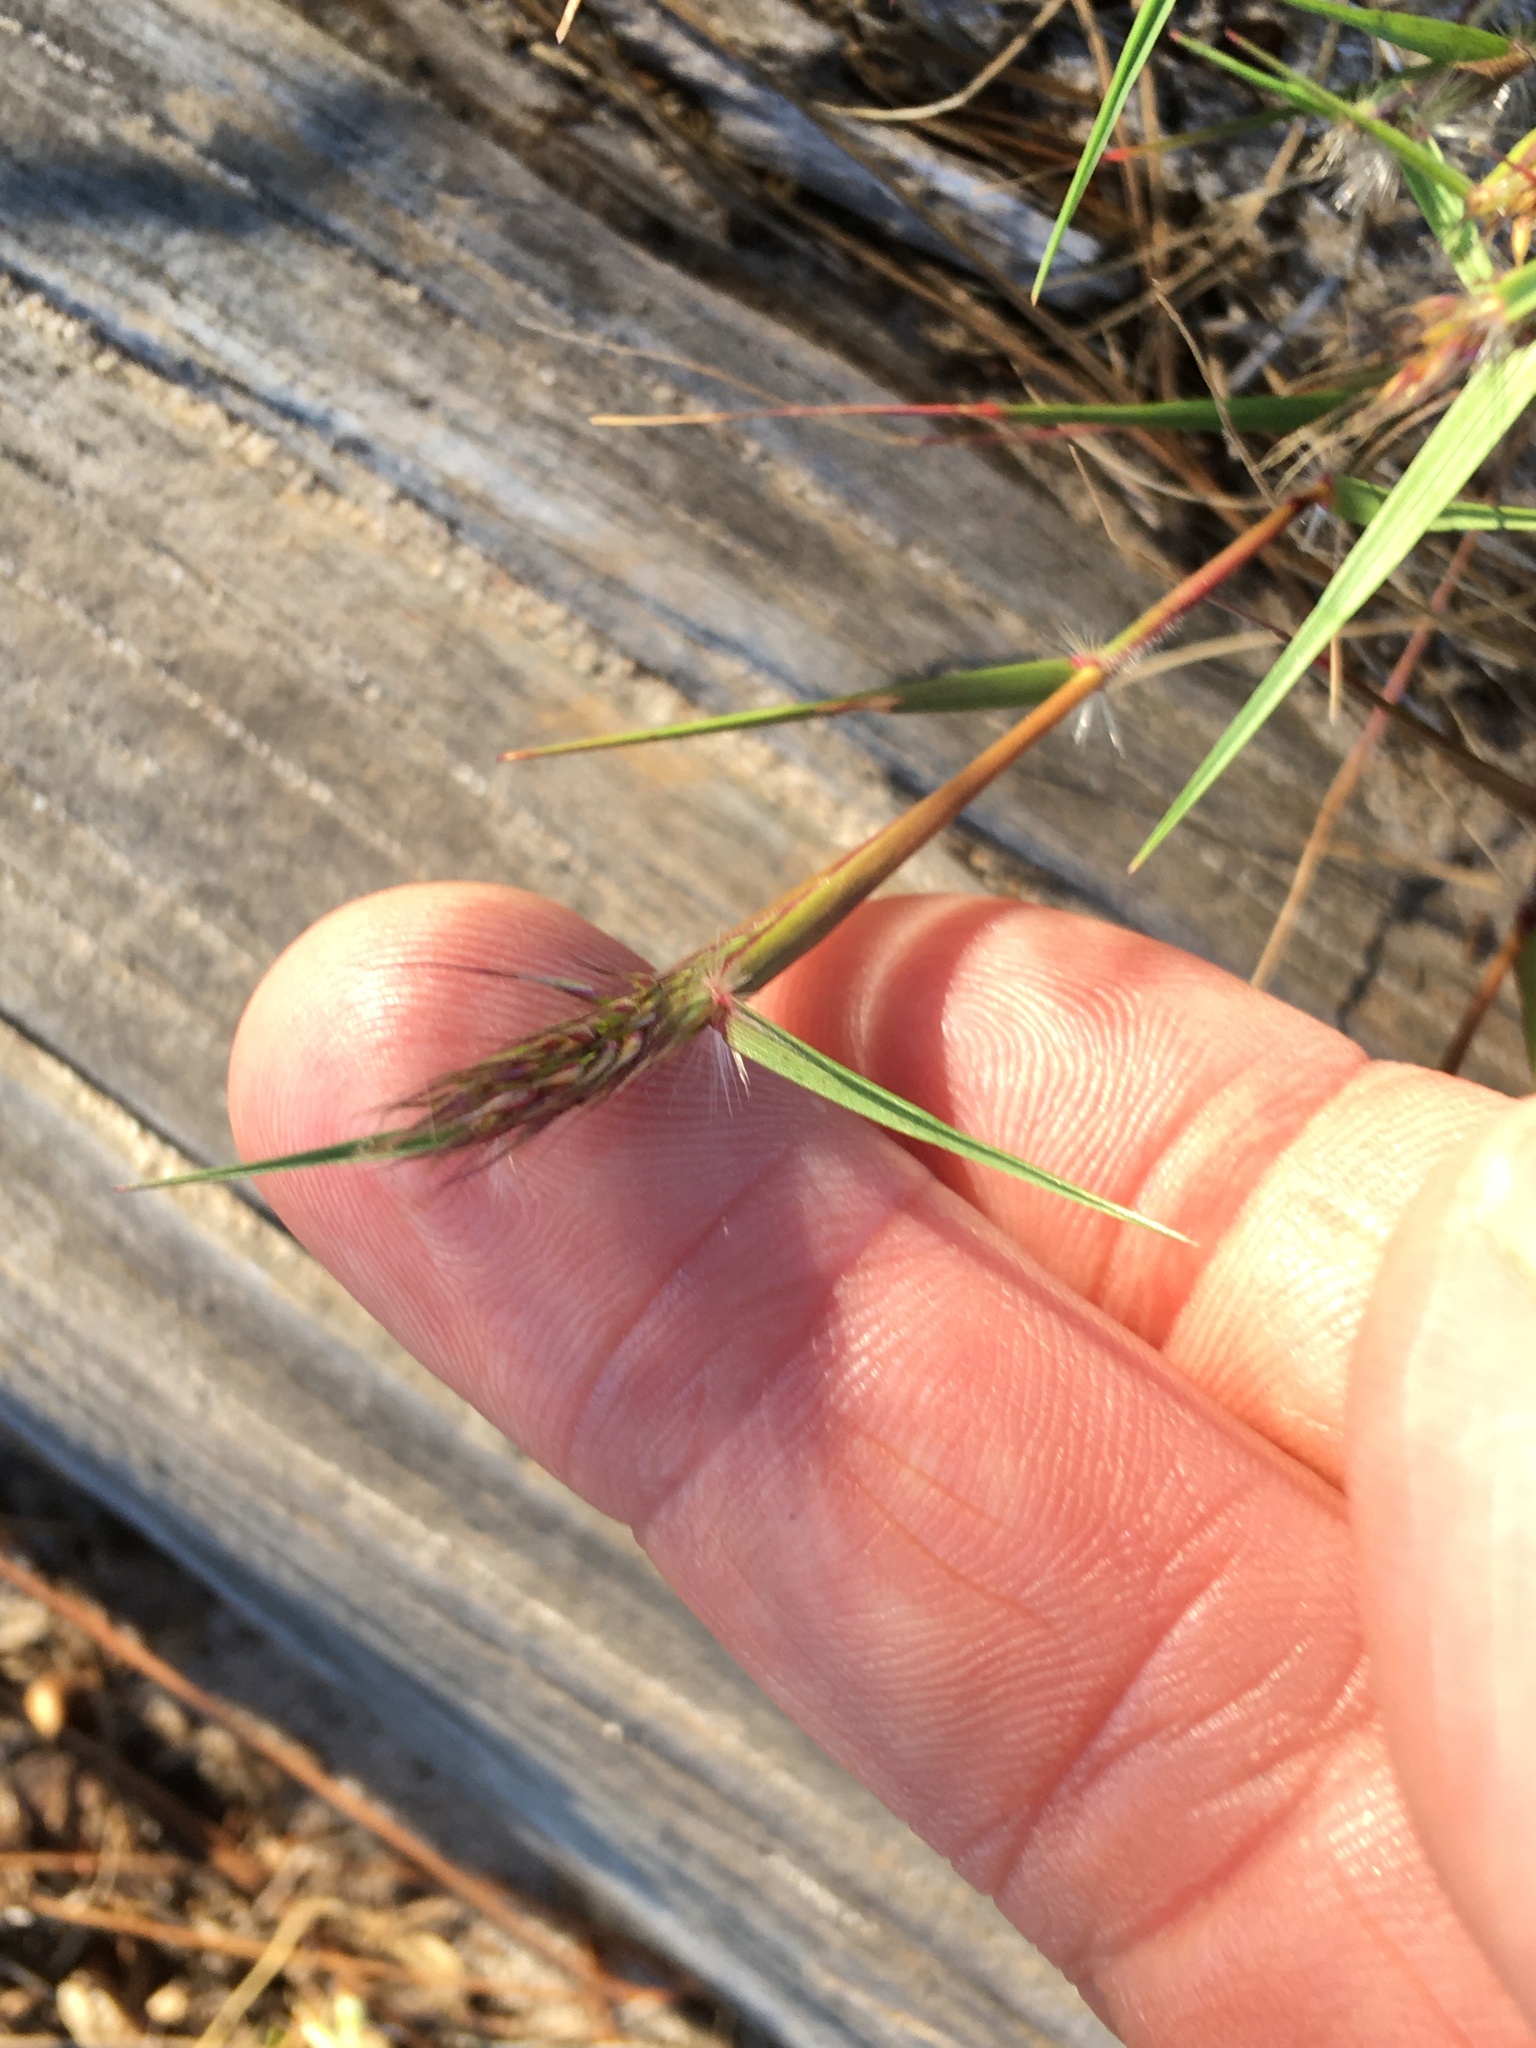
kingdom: Plantae
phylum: Tracheophyta
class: Liliopsida
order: Poales
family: Poaceae
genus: Pentameris
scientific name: Pentameris barbata
